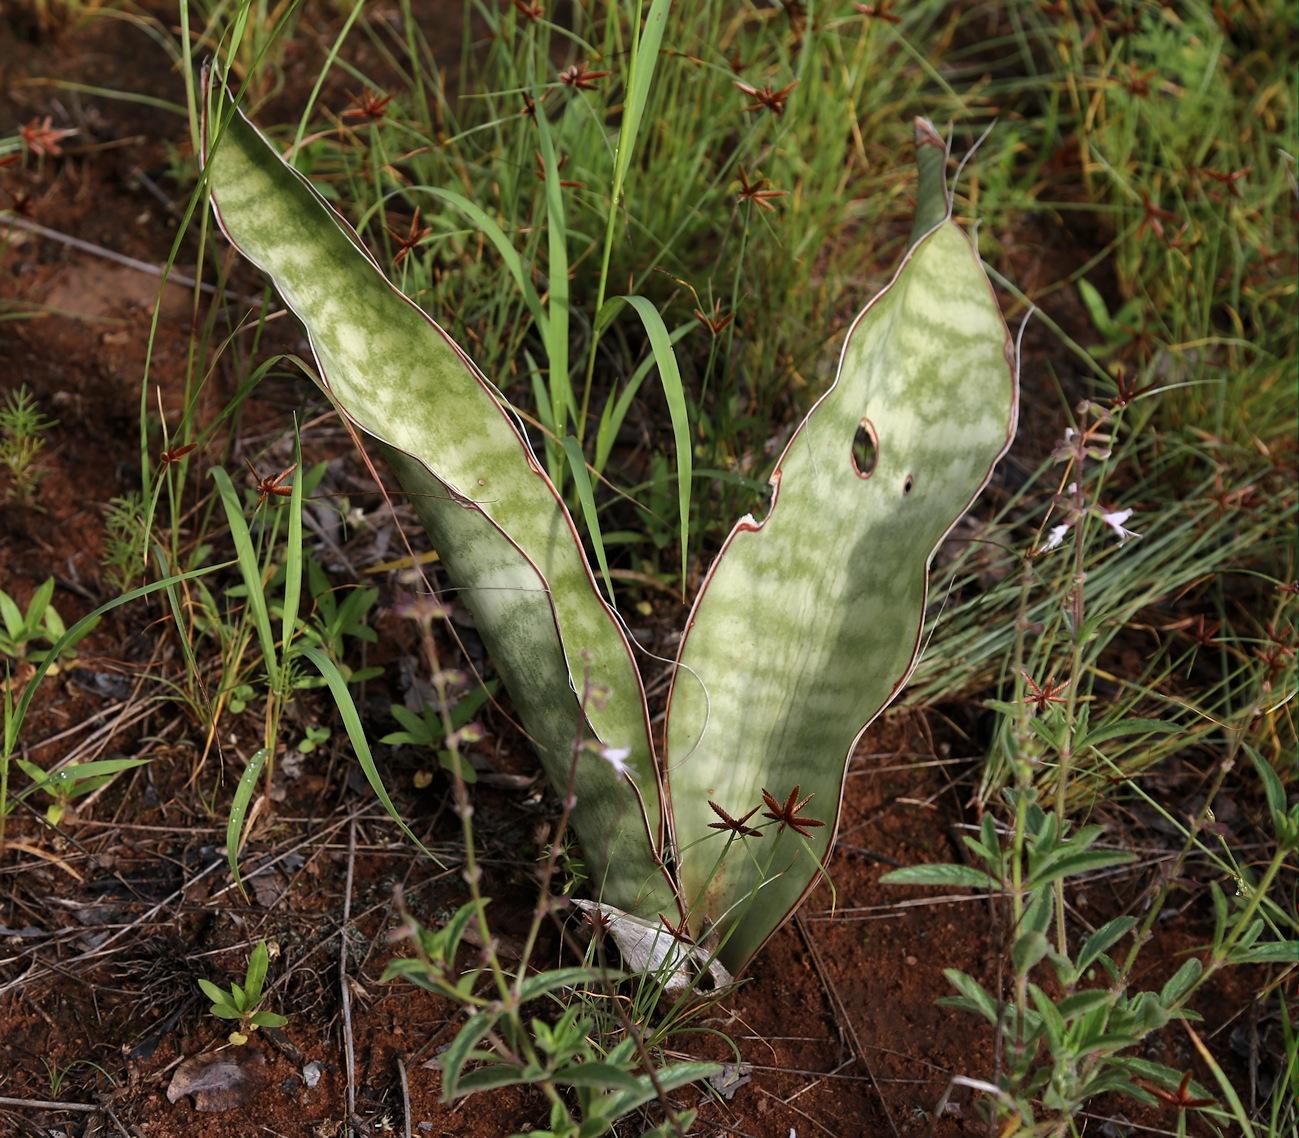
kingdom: Plantae
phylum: Tracheophyta
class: Liliopsida
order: Asparagales
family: Asparagaceae
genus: Dracaena
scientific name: Dracaena hyacinthoides
